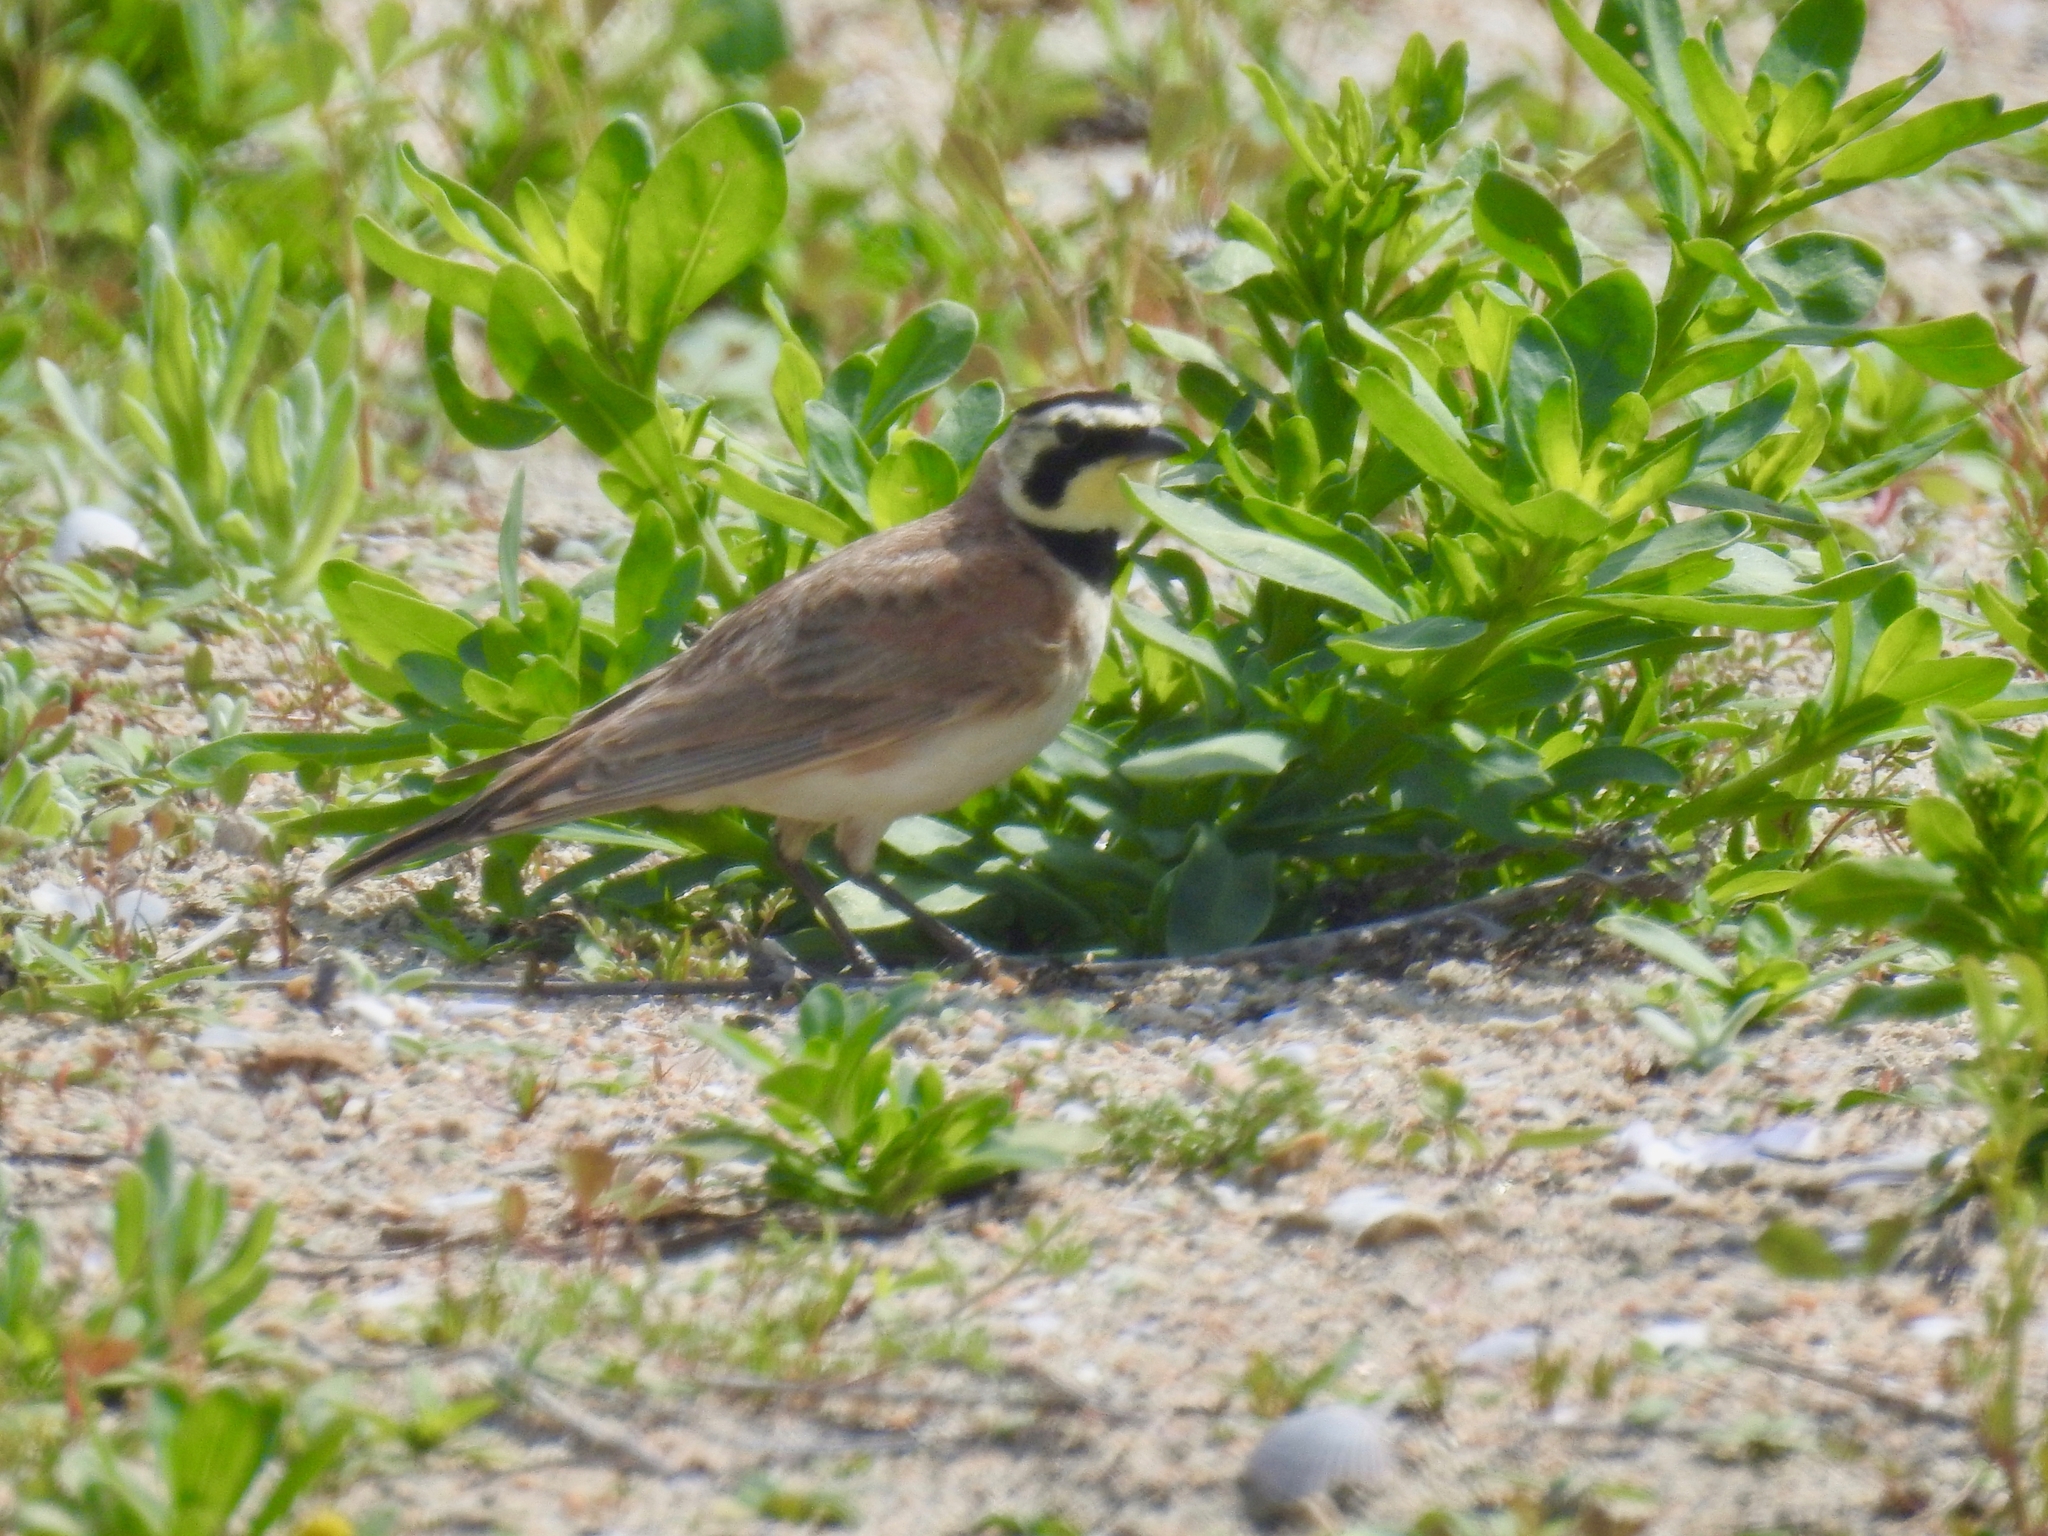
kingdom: Animalia
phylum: Chordata
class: Aves
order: Passeriformes
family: Alaudidae
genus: Eremophila
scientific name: Eremophila alpestris
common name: Horned lark
